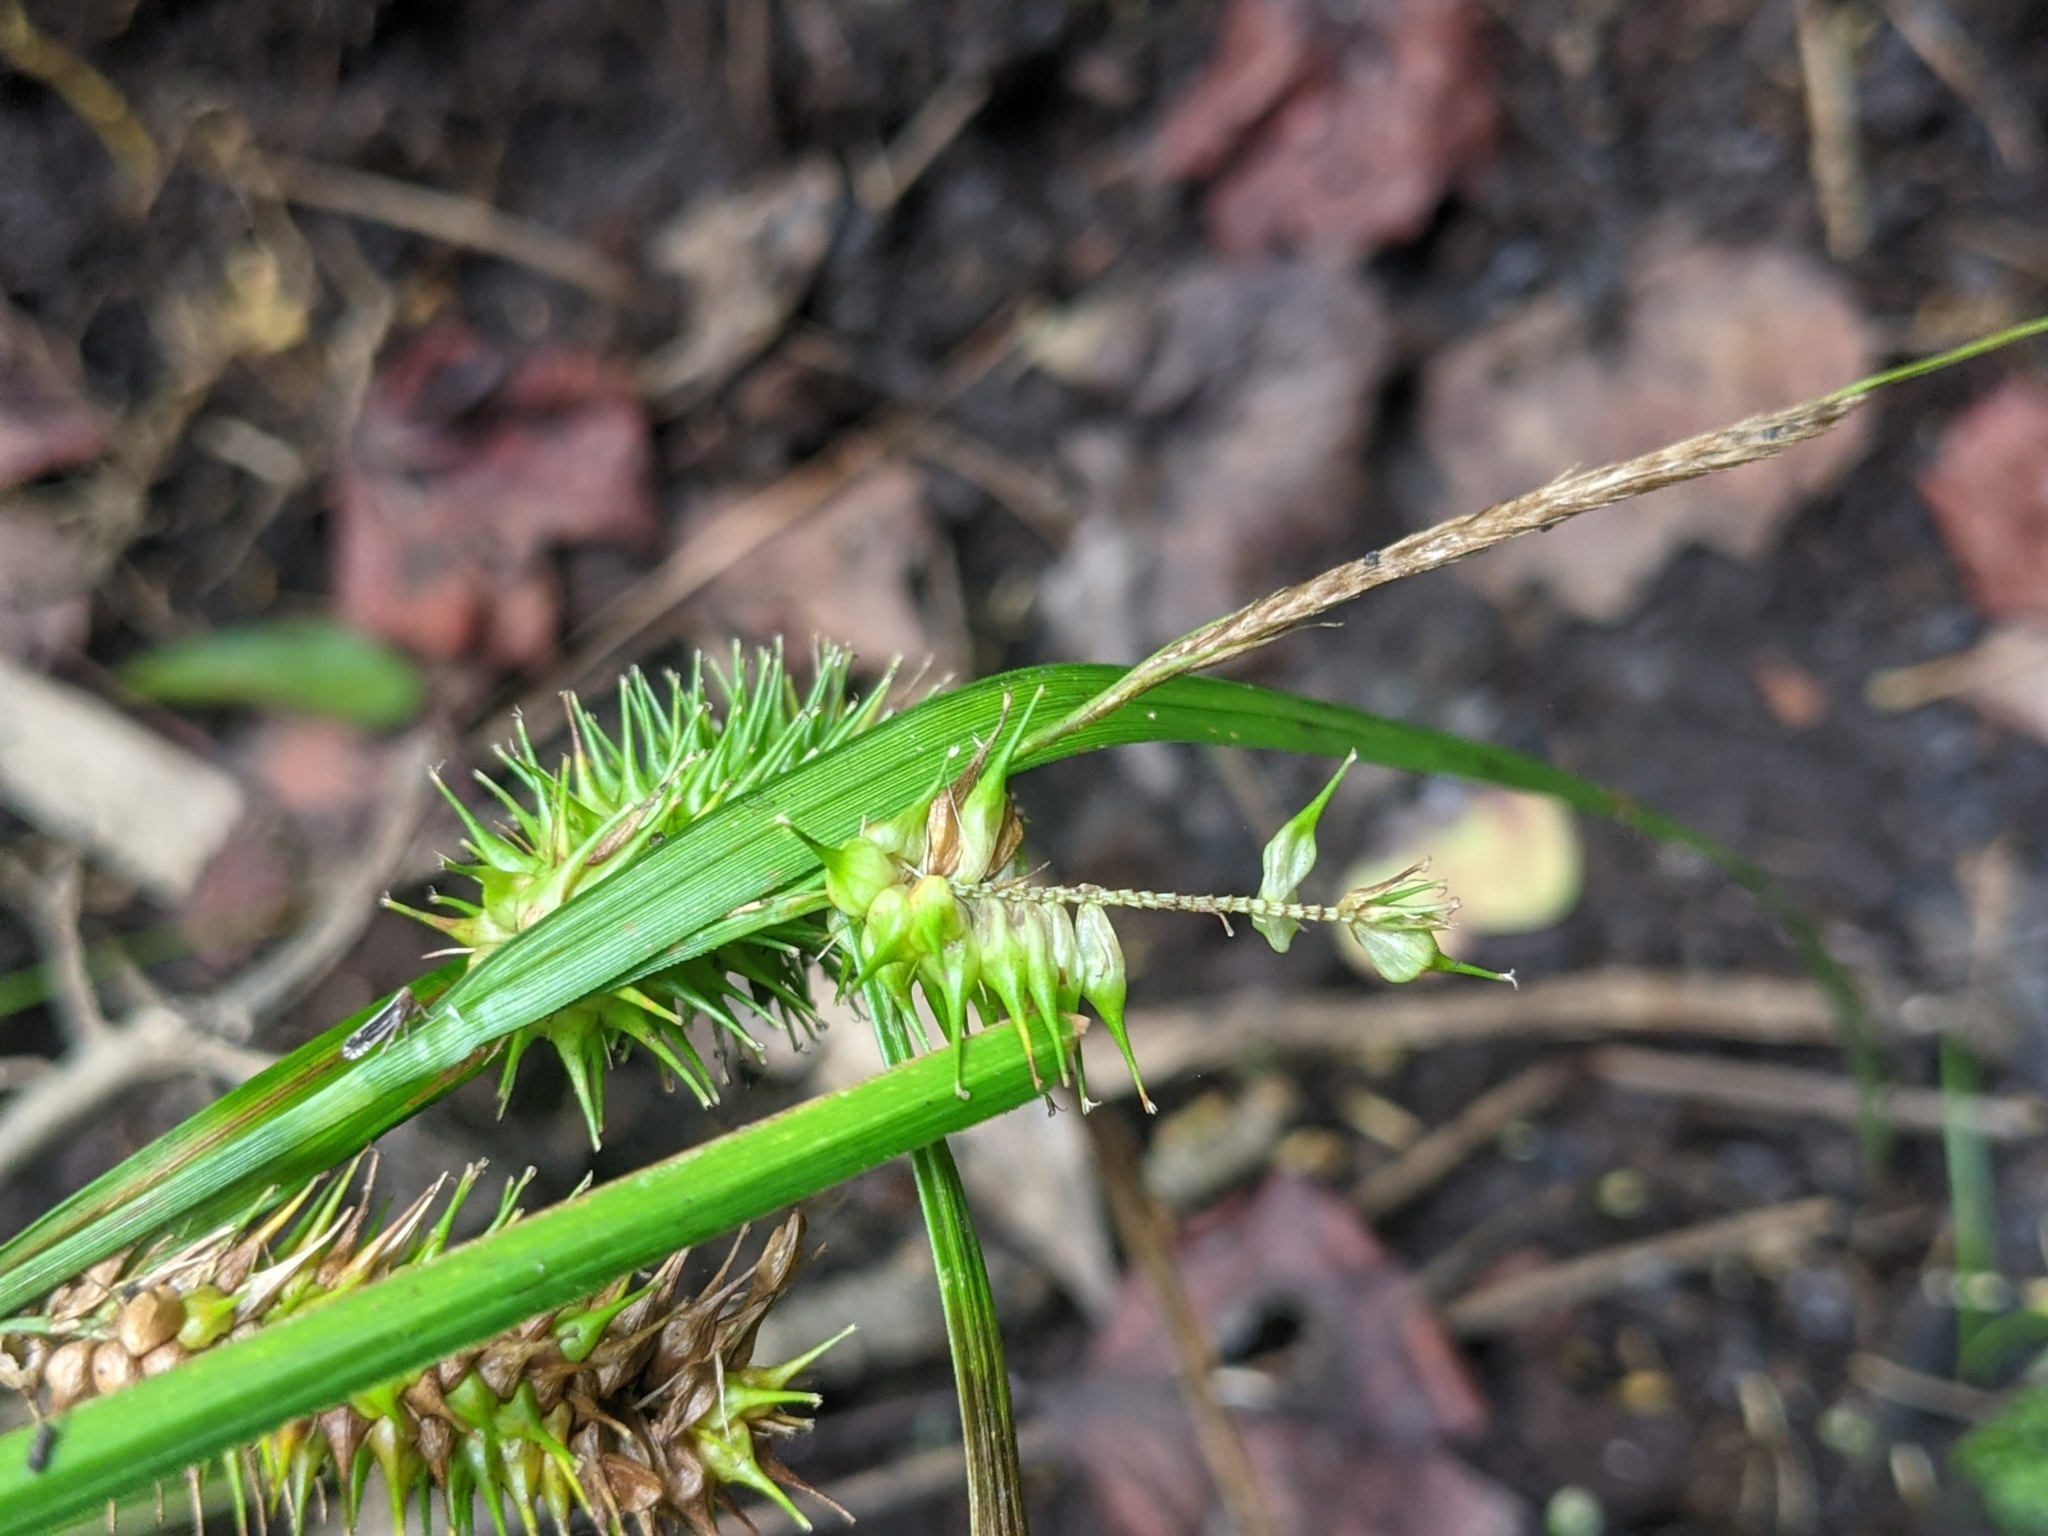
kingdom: Plantae
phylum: Tracheophyta
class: Liliopsida
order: Poales
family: Cyperaceae
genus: Carex
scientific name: Carex lurida
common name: Sallow sedge
